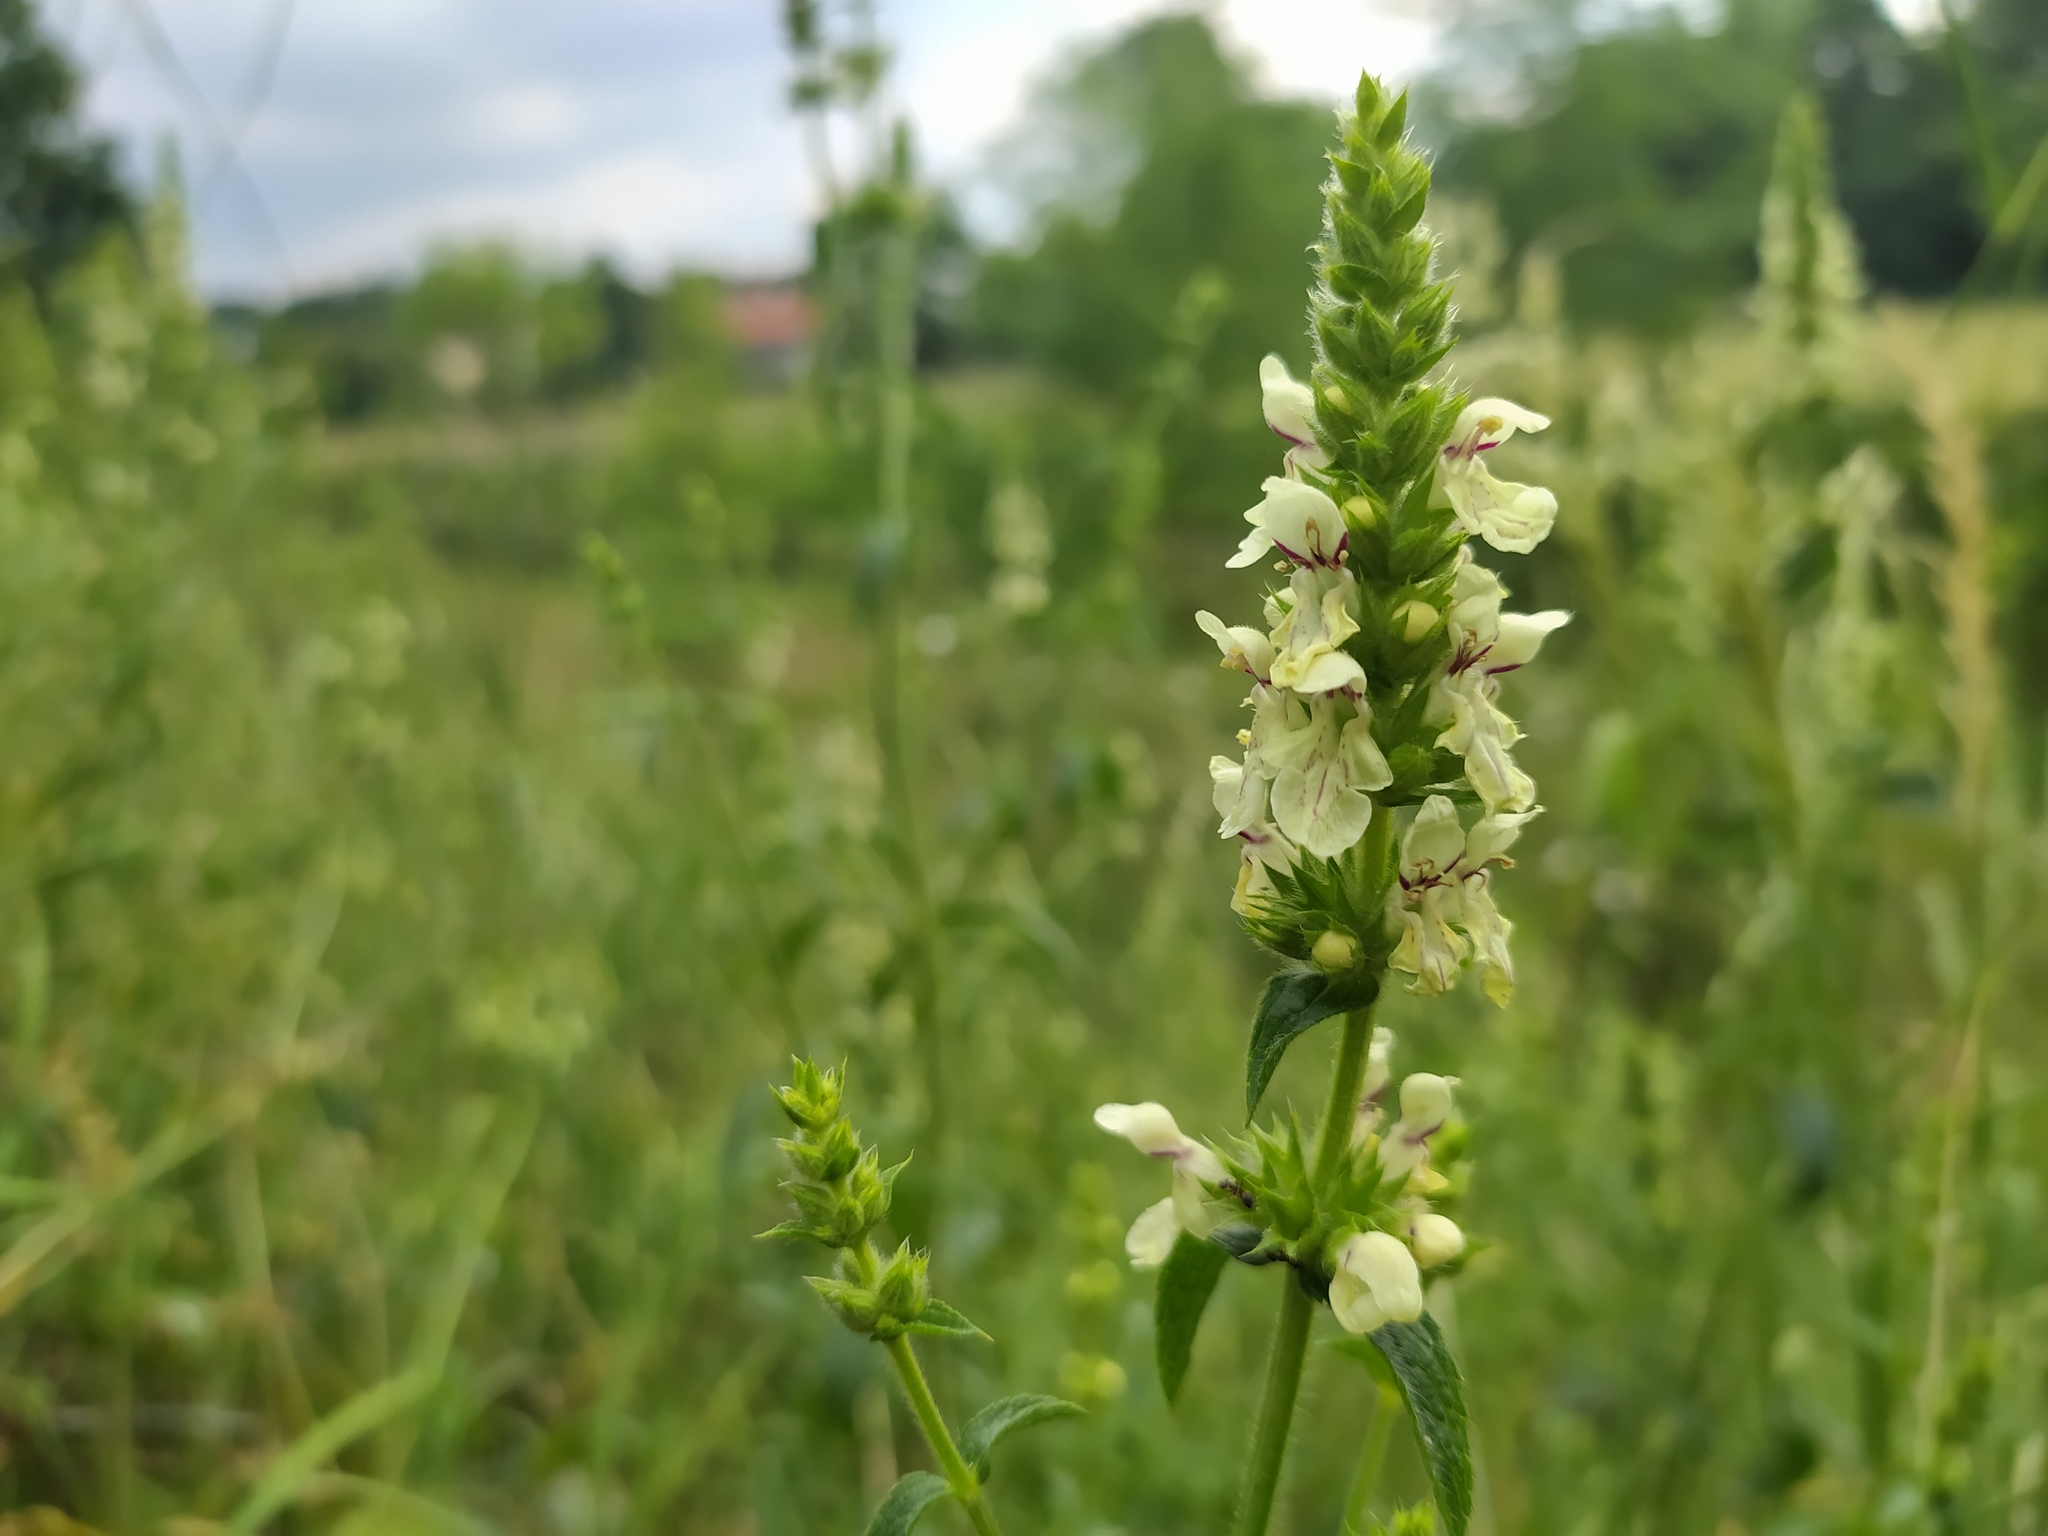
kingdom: Plantae
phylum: Tracheophyta
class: Magnoliopsida
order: Lamiales
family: Lamiaceae
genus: Stachys
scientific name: Stachys recta
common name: Perennial yellow-woundwort
